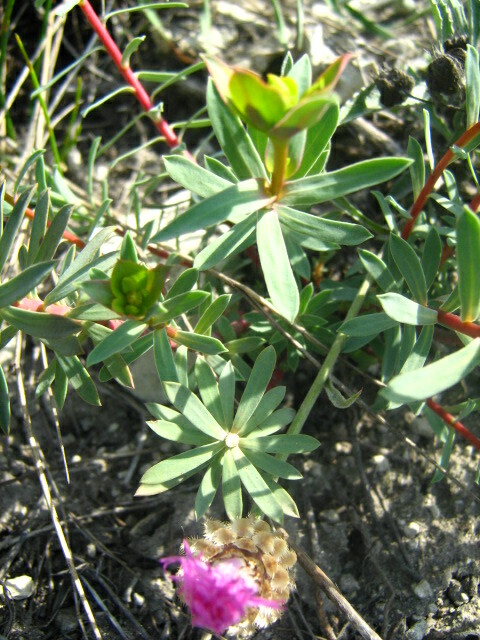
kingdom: Plantae
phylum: Tracheophyta
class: Magnoliopsida
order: Malpighiales
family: Euphorbiaceae
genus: Euphorbia
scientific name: Euphorbia petrophila
